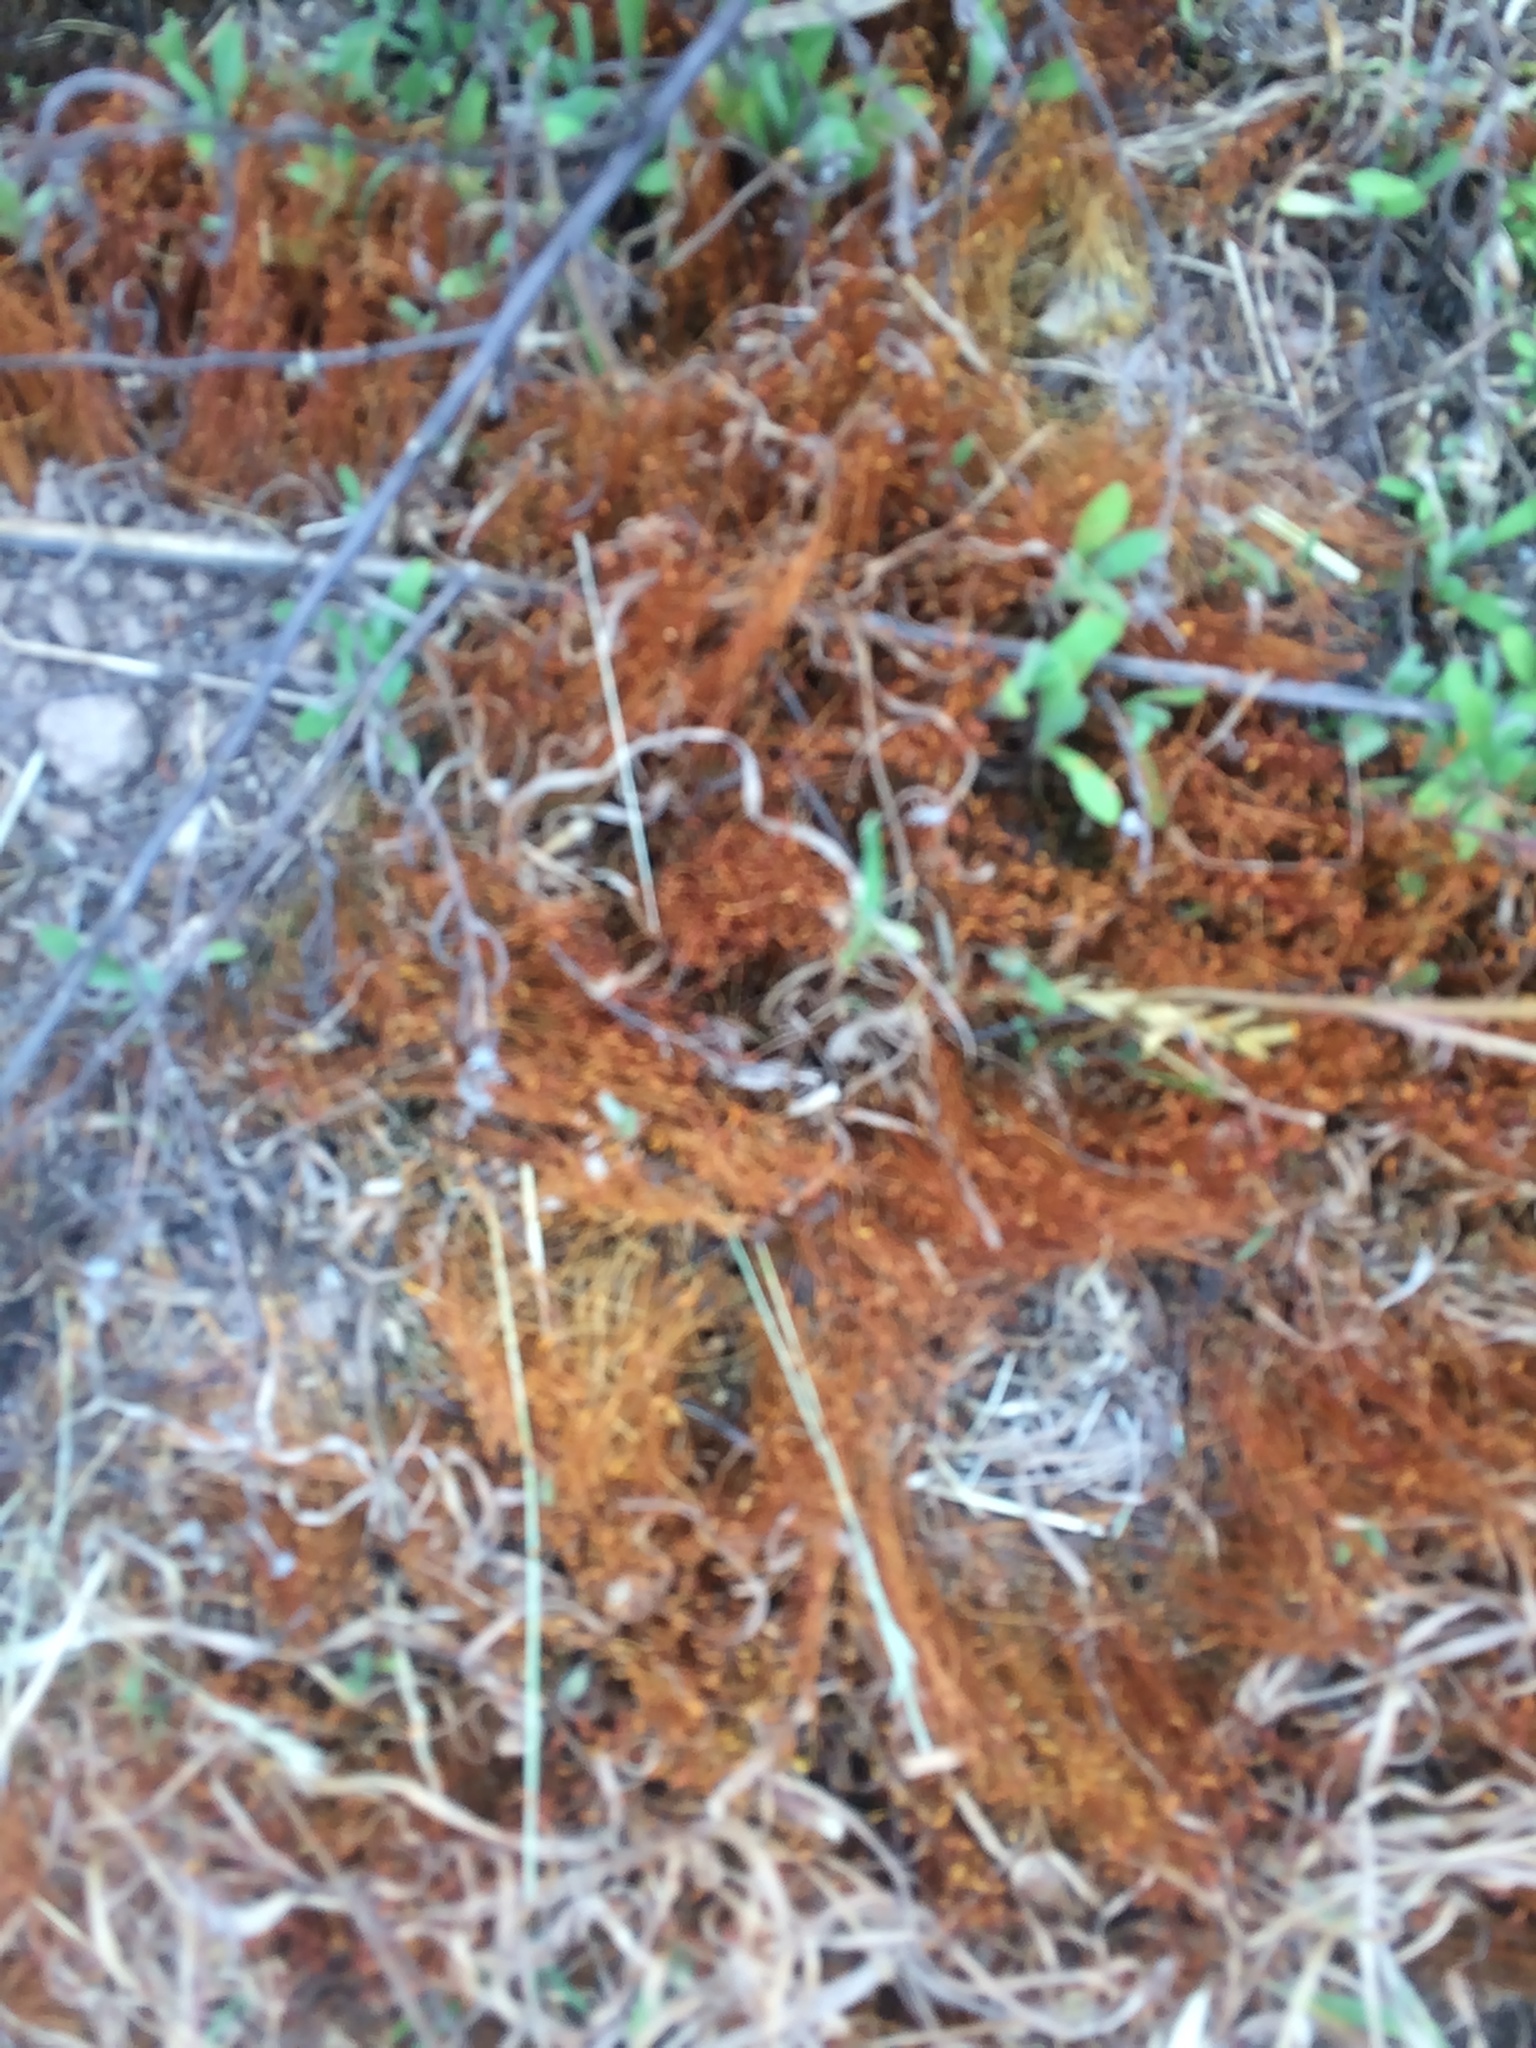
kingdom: Plantae
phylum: Bryophyta
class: Bryopsida
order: Funariales
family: Funariaceae
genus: Funaria
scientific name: Funaria hygrometrica
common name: Common cord moss
